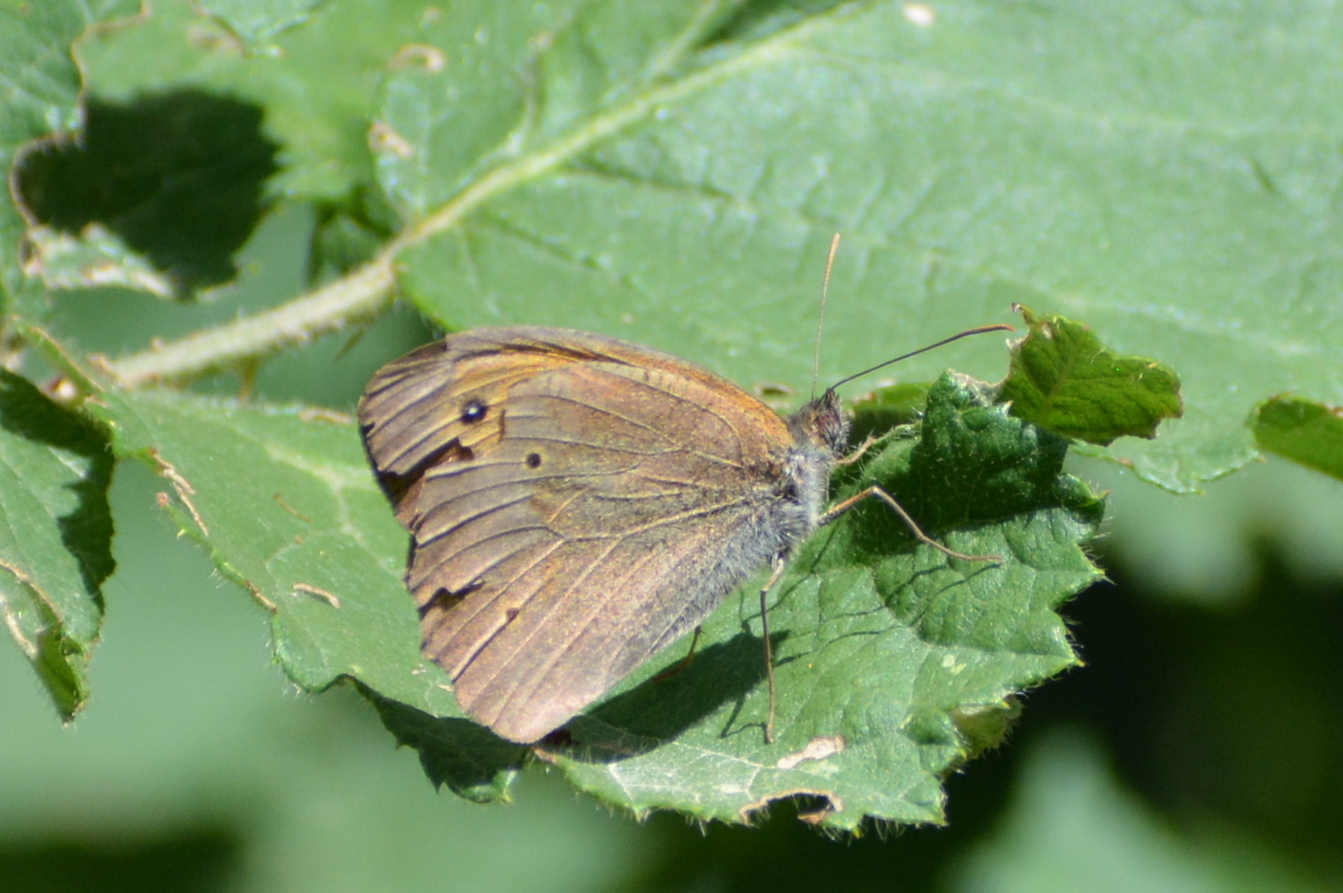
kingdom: Animalia
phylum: Arthropoda
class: Insecta
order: Lepidoptera
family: Nymphalidae
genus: Maniola
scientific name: Maniola jurtina
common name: Meadow brown
